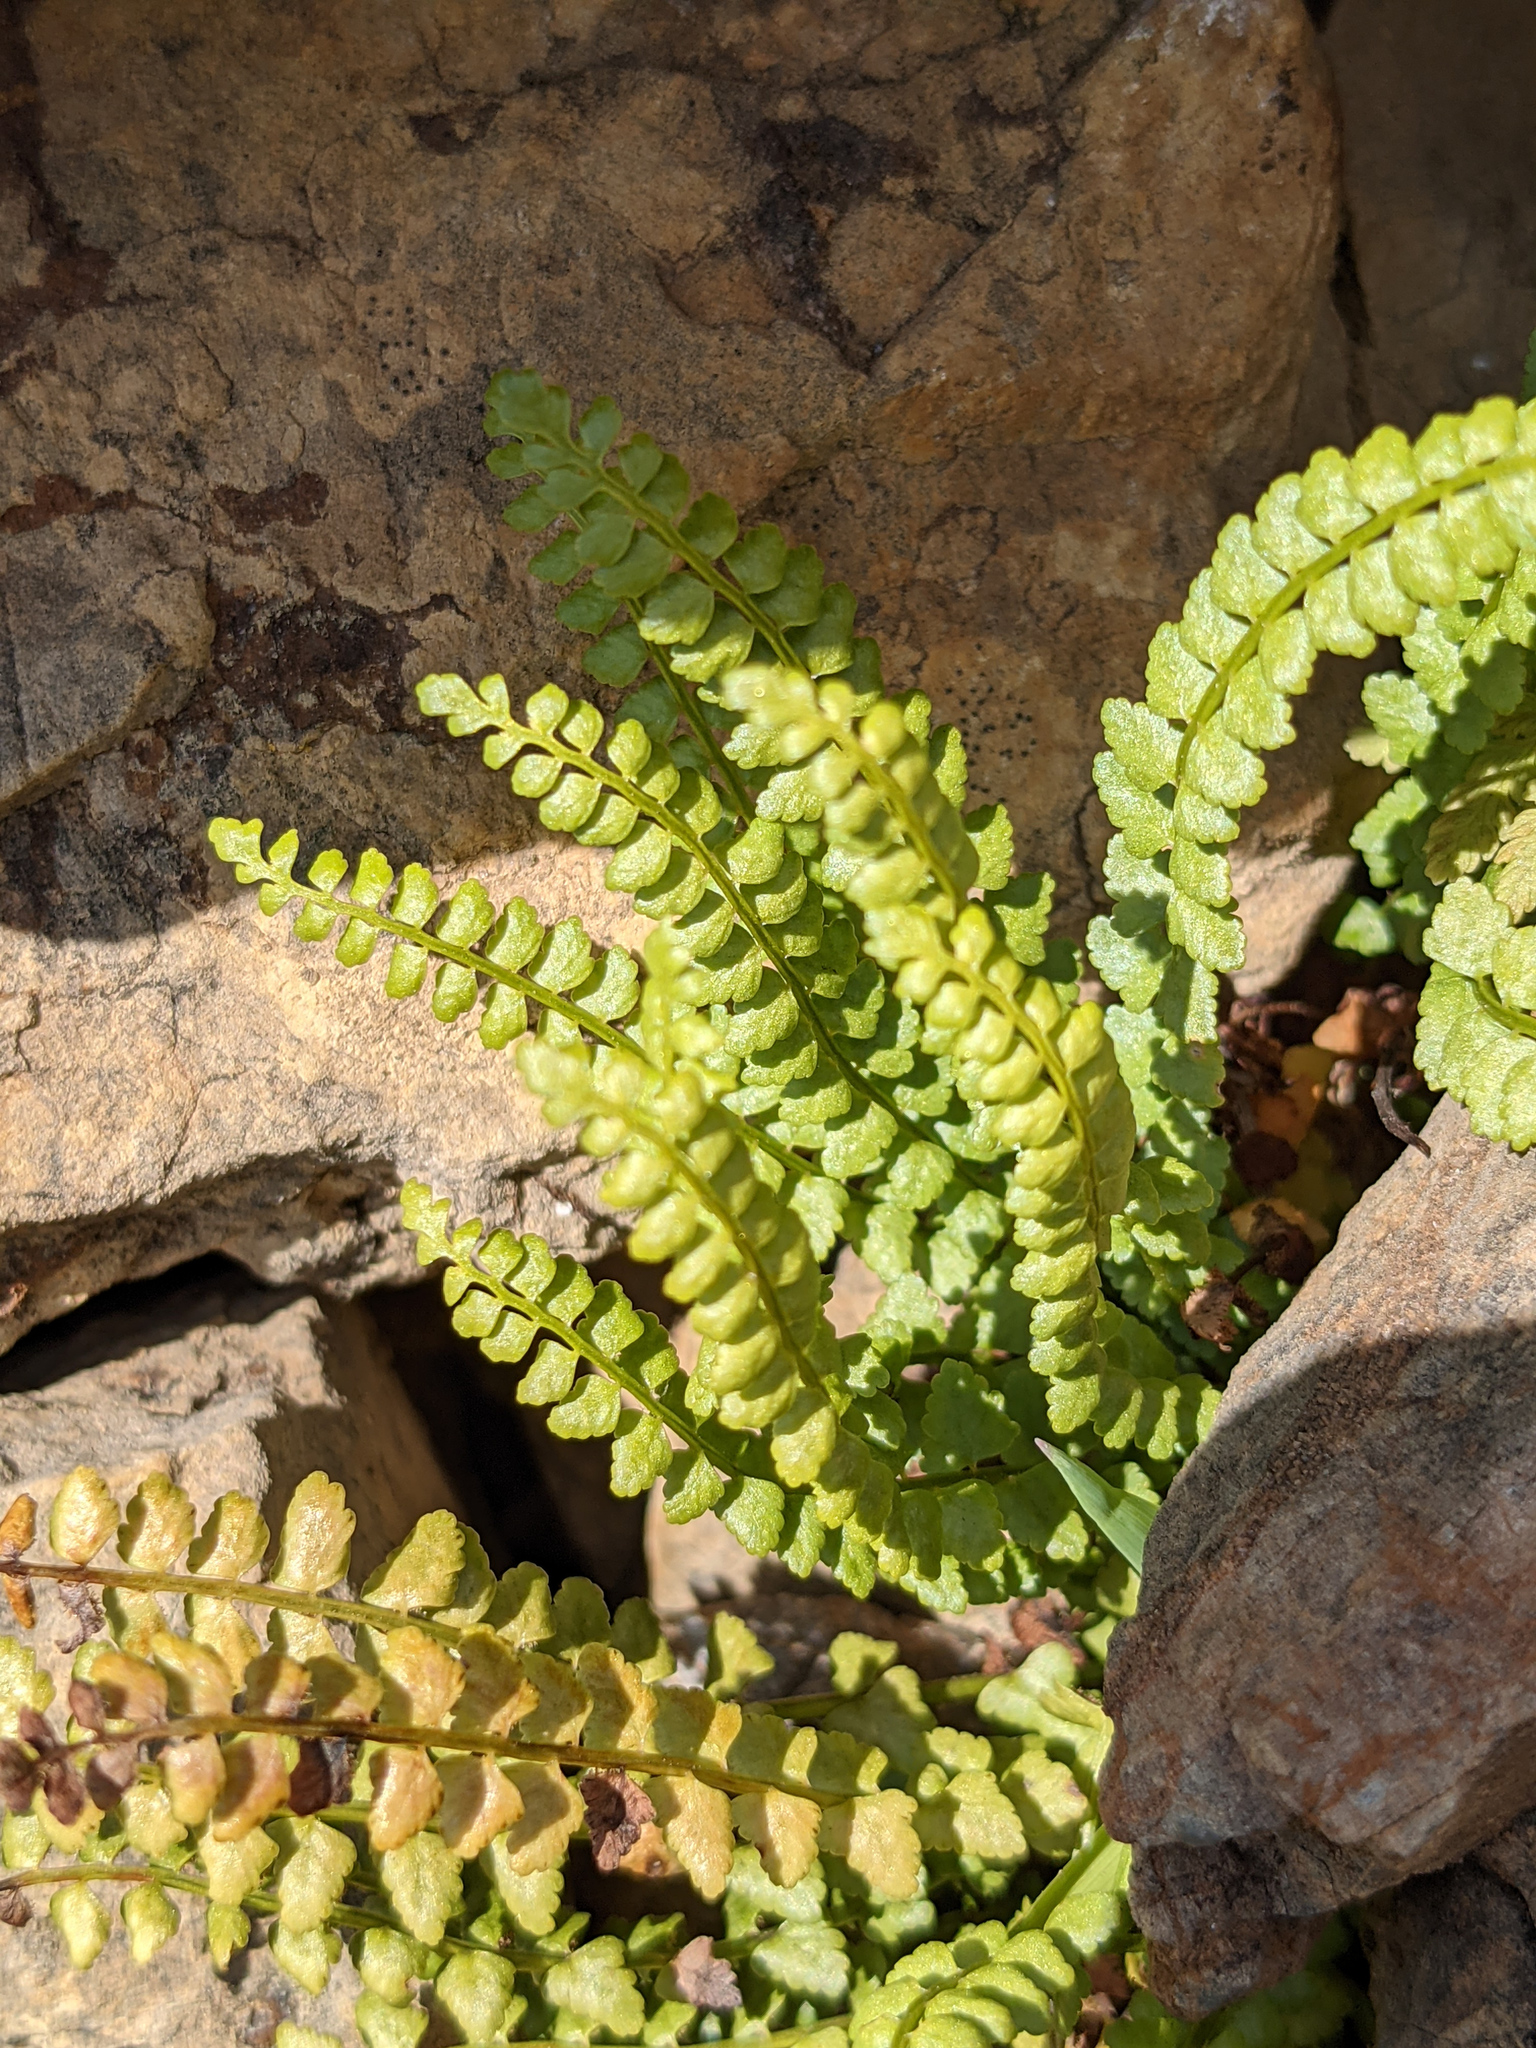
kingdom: Plantae
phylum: Tracheophyta
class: Polypodiopsida
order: Polypodiales
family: Aspleniaceae
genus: Asplenium
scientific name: Asplenium viride
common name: Green spleenwort
